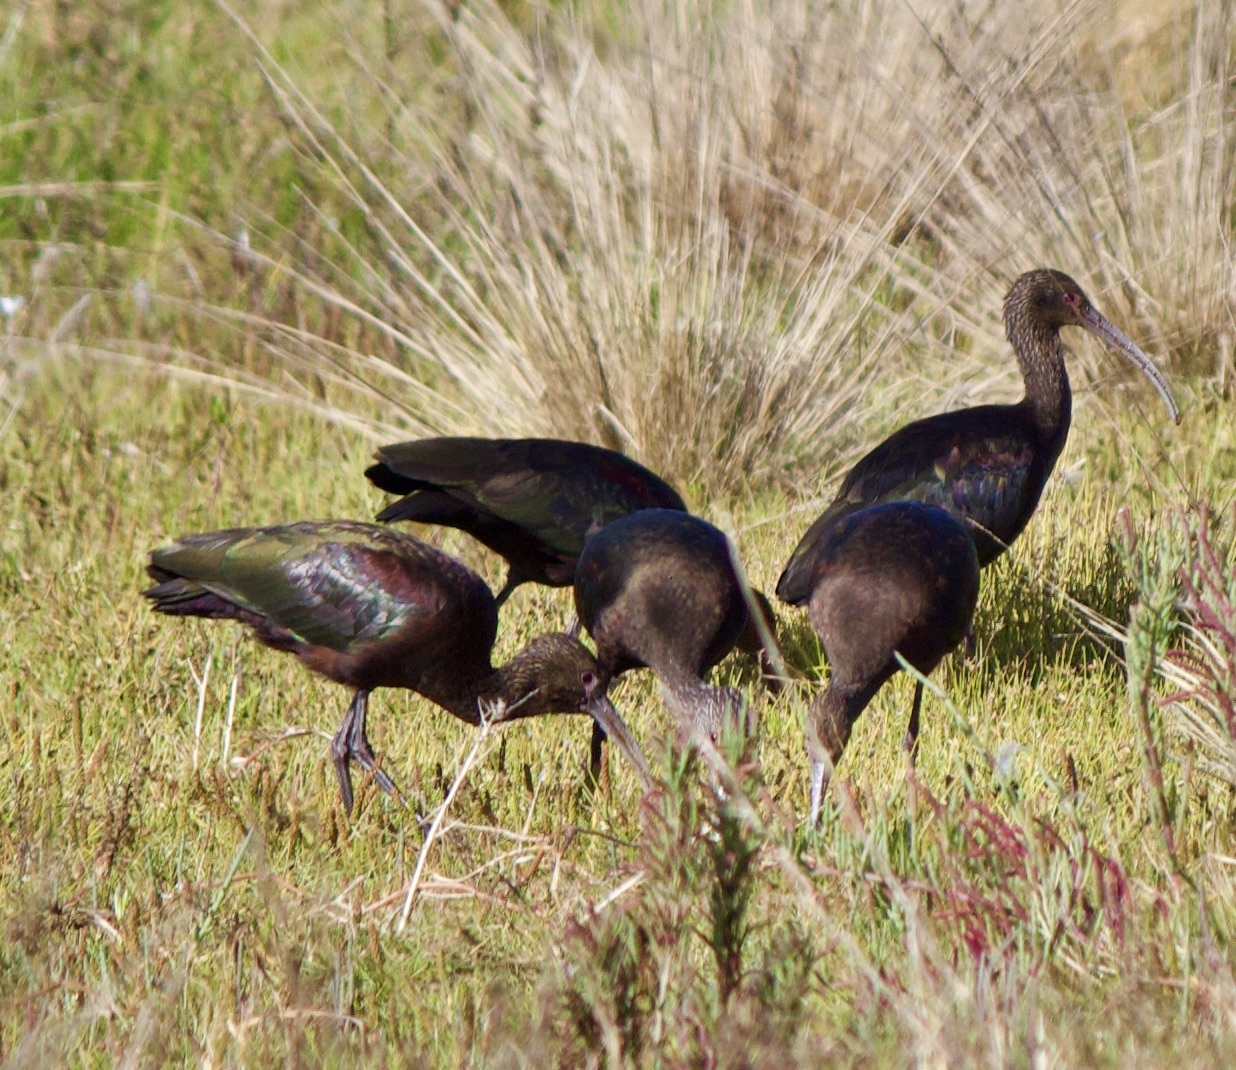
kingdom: Animalia
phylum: Chordata
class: Aves
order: Pelecaniformes
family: Threskiornithidae
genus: Plegadis
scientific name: Plegadis chihi
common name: White-faced ibis
